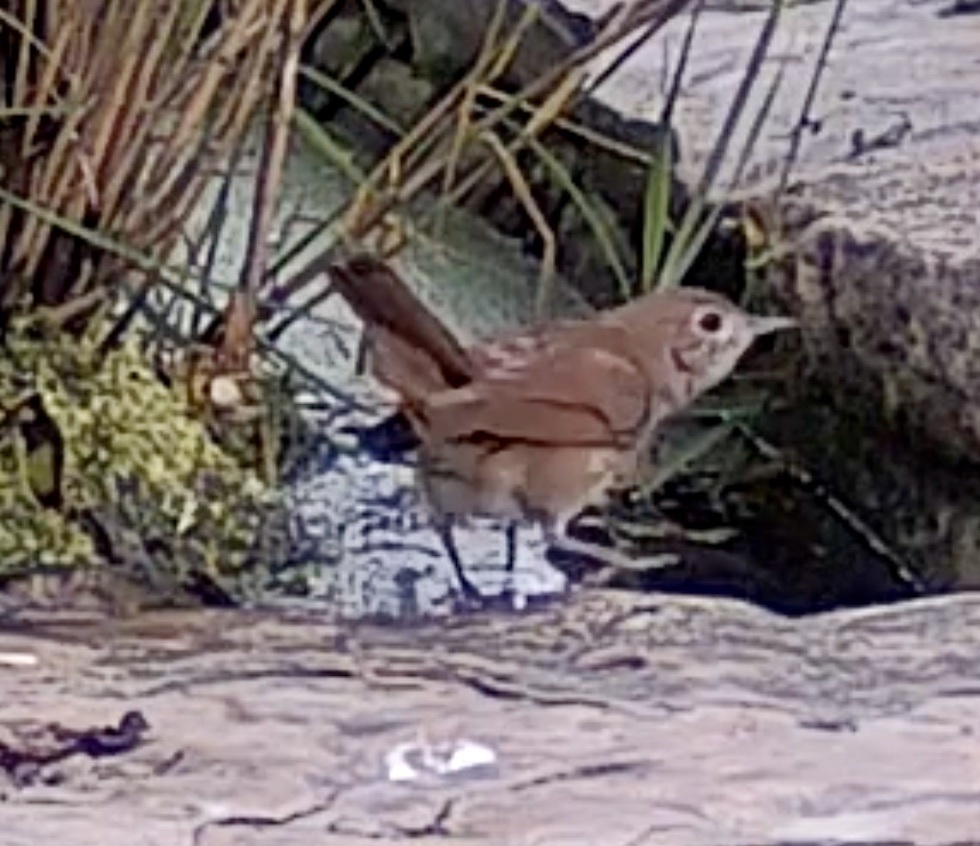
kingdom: Animalia
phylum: Chordata
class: Aves
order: Passeriformes
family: Muscicapidae
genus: Luscinia
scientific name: Luscinia megarhynchos
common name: Common nightingale
